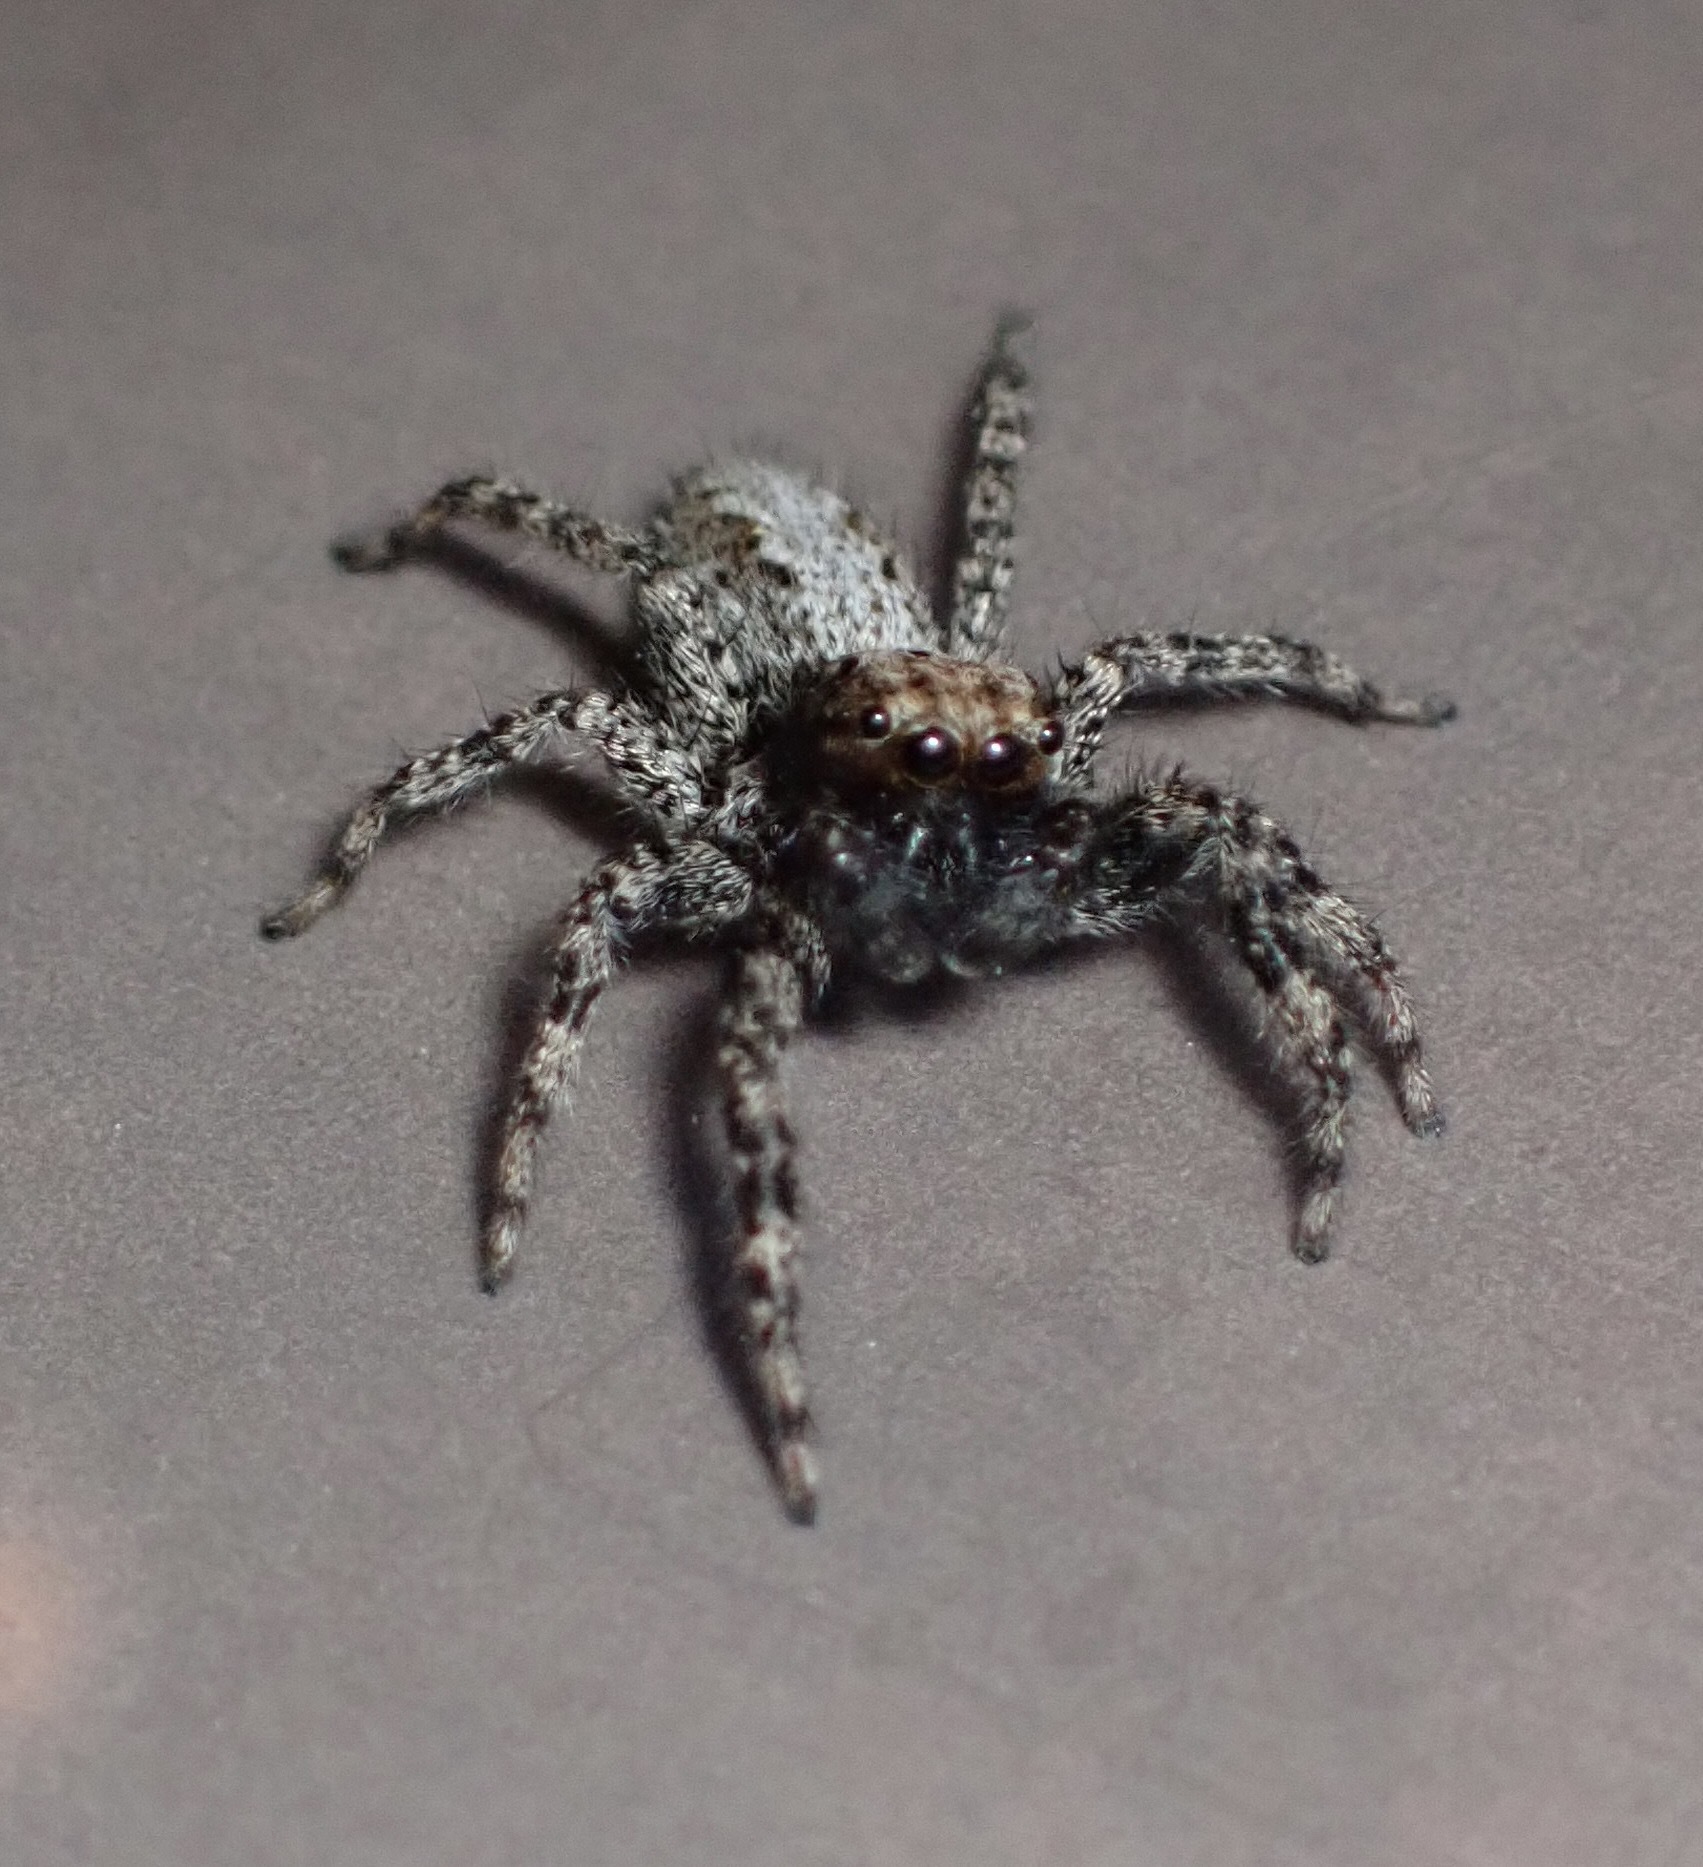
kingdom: Animalia
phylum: Arthropoda
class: Arachnida
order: Araneae
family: Salticidae
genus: Platycryptus
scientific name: Platycryptus californicus
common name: Jumping spiders
